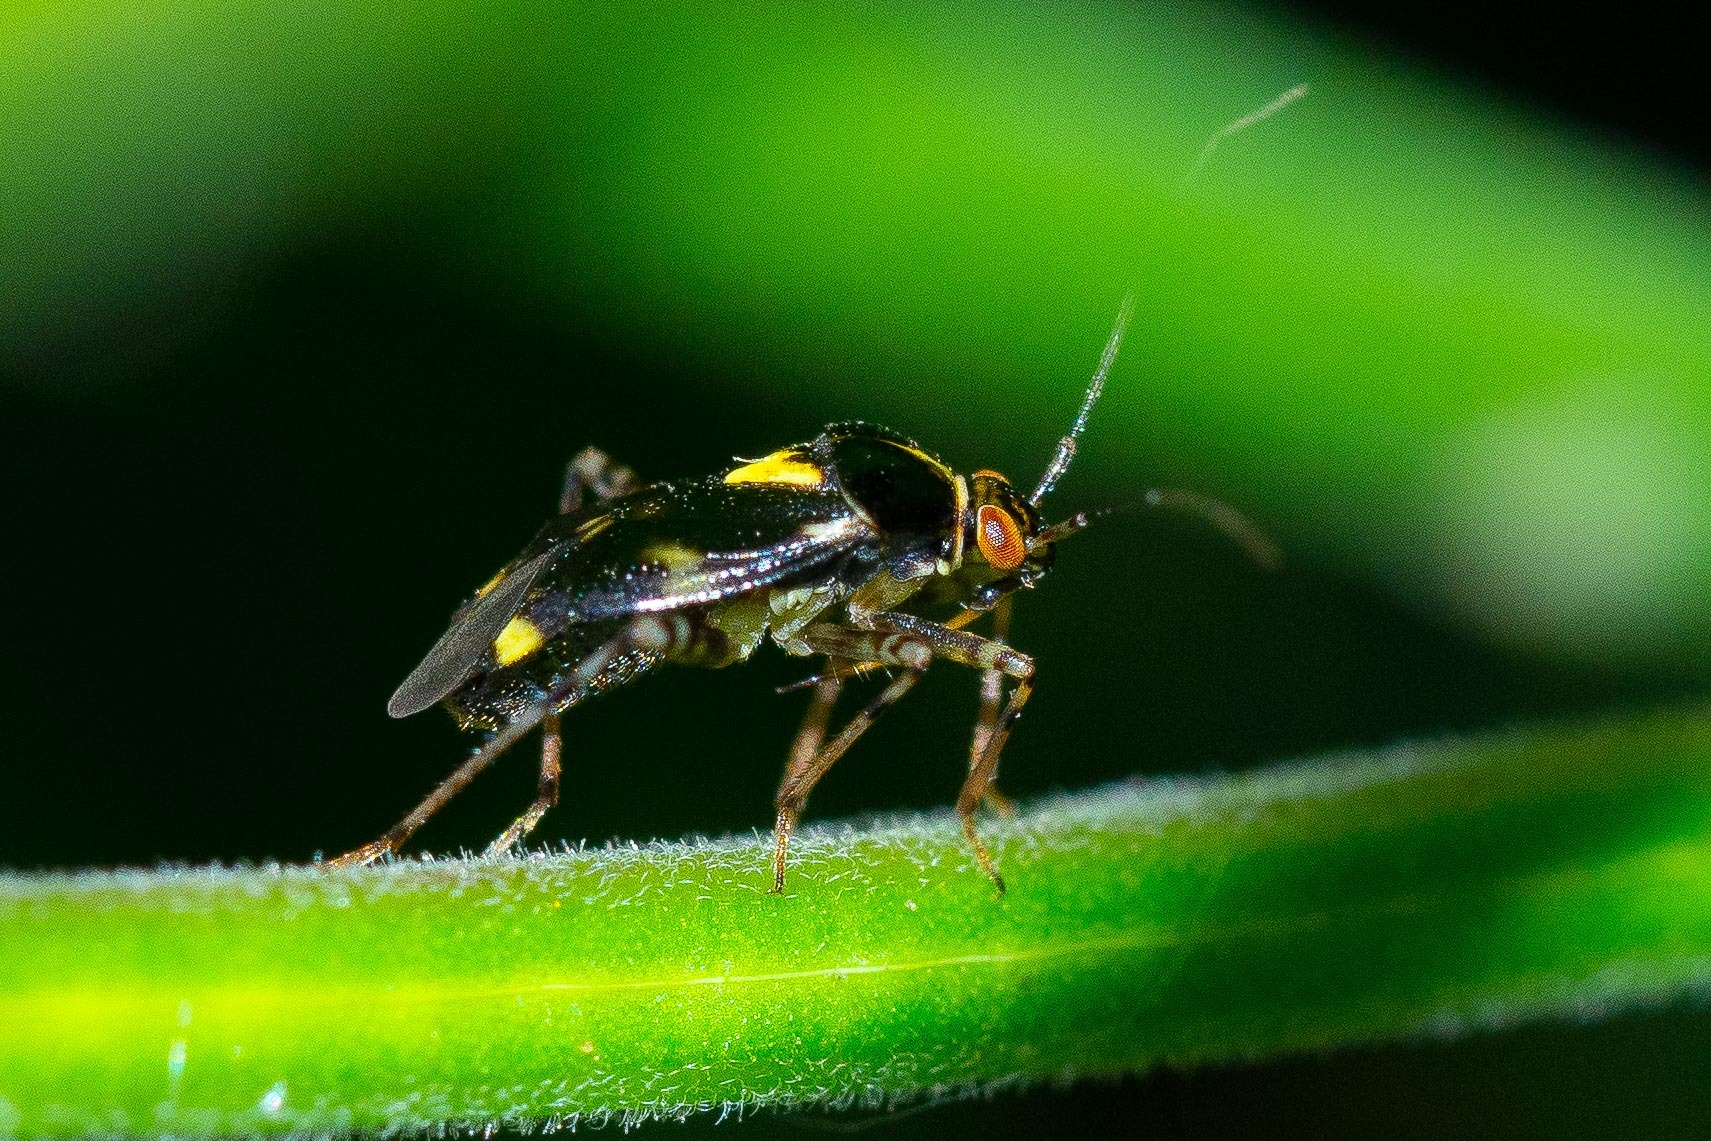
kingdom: Animalia
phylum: Arthropoda
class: Insecta
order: Hemiptera
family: Miridae
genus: Liocoris
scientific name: Liocoris tripustulatus
